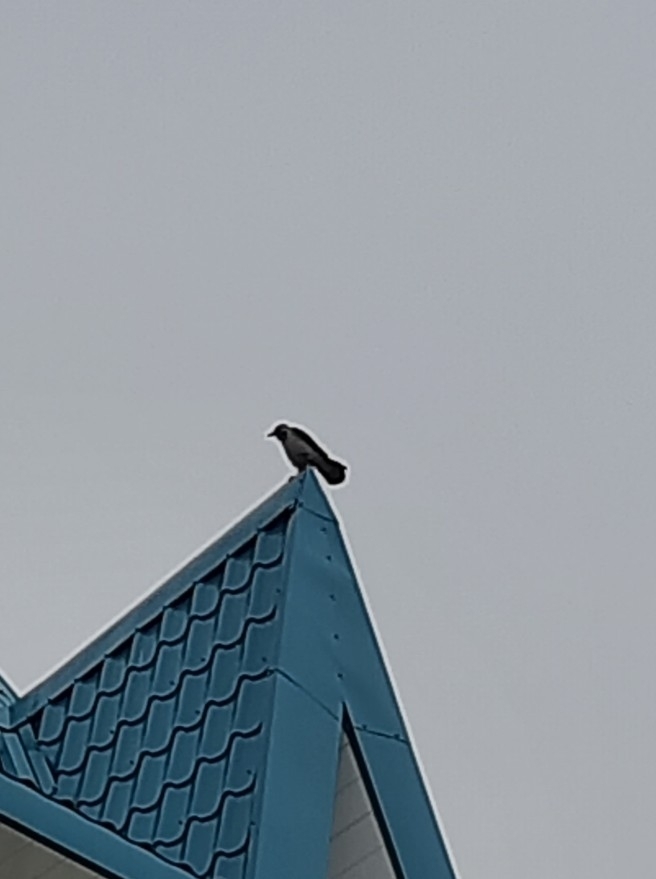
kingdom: Animalia
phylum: Chordata
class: Aves
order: Passeriformes
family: Corvidae
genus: Corvus
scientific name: Corvus cornix
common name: Hooded crow
